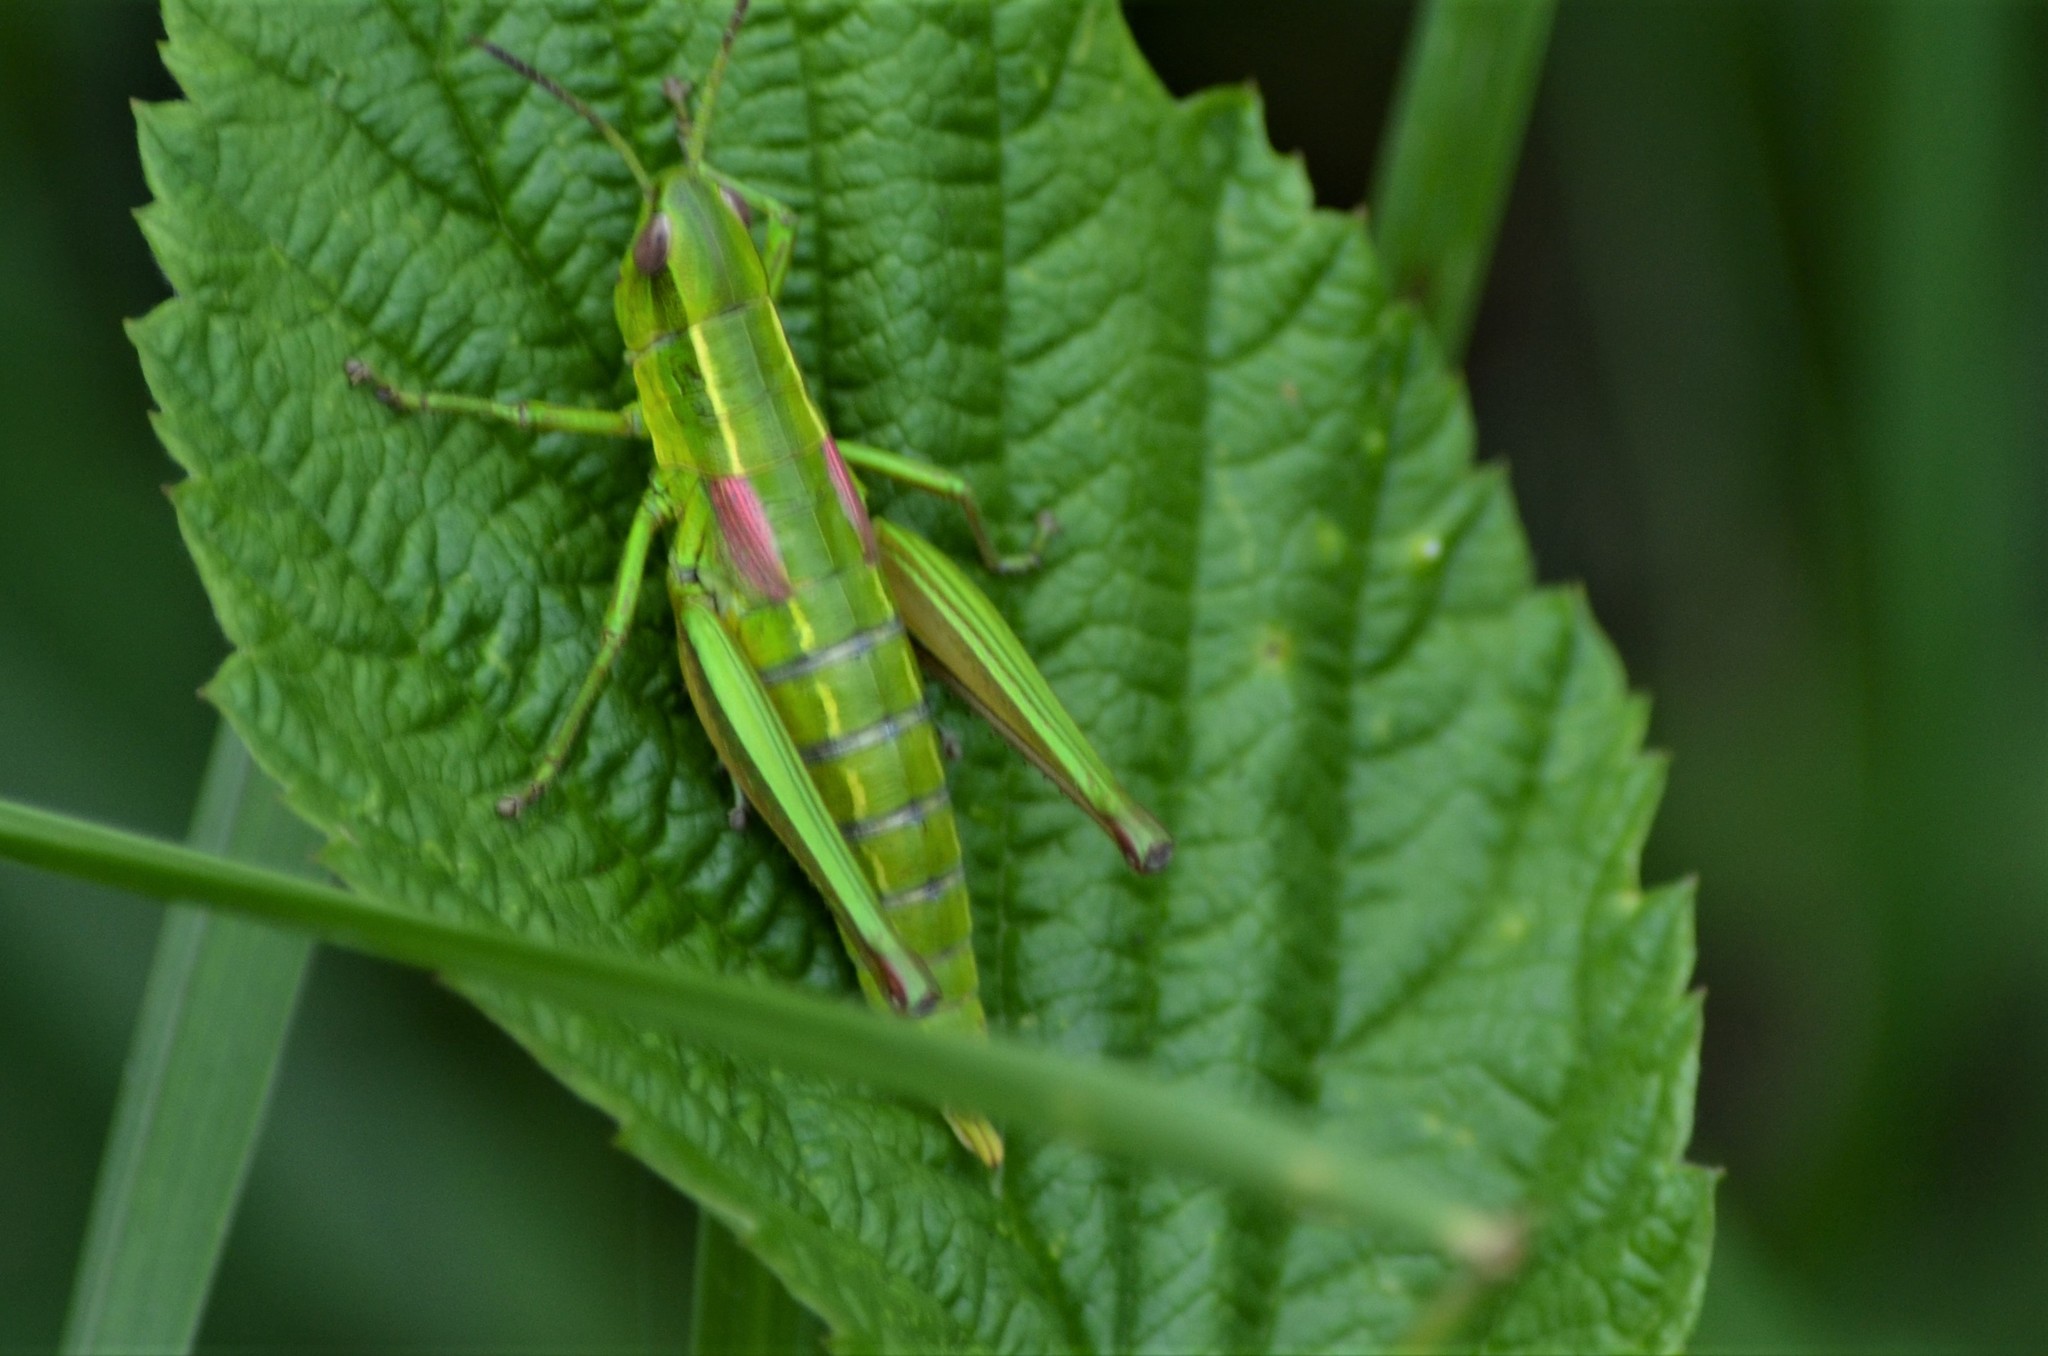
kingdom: Animalia
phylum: Arthropoda
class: Insecta
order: Orthoptera
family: Acrididae
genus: Euthystira
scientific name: Euthystira brachyptera
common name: Small gold grasshopper
